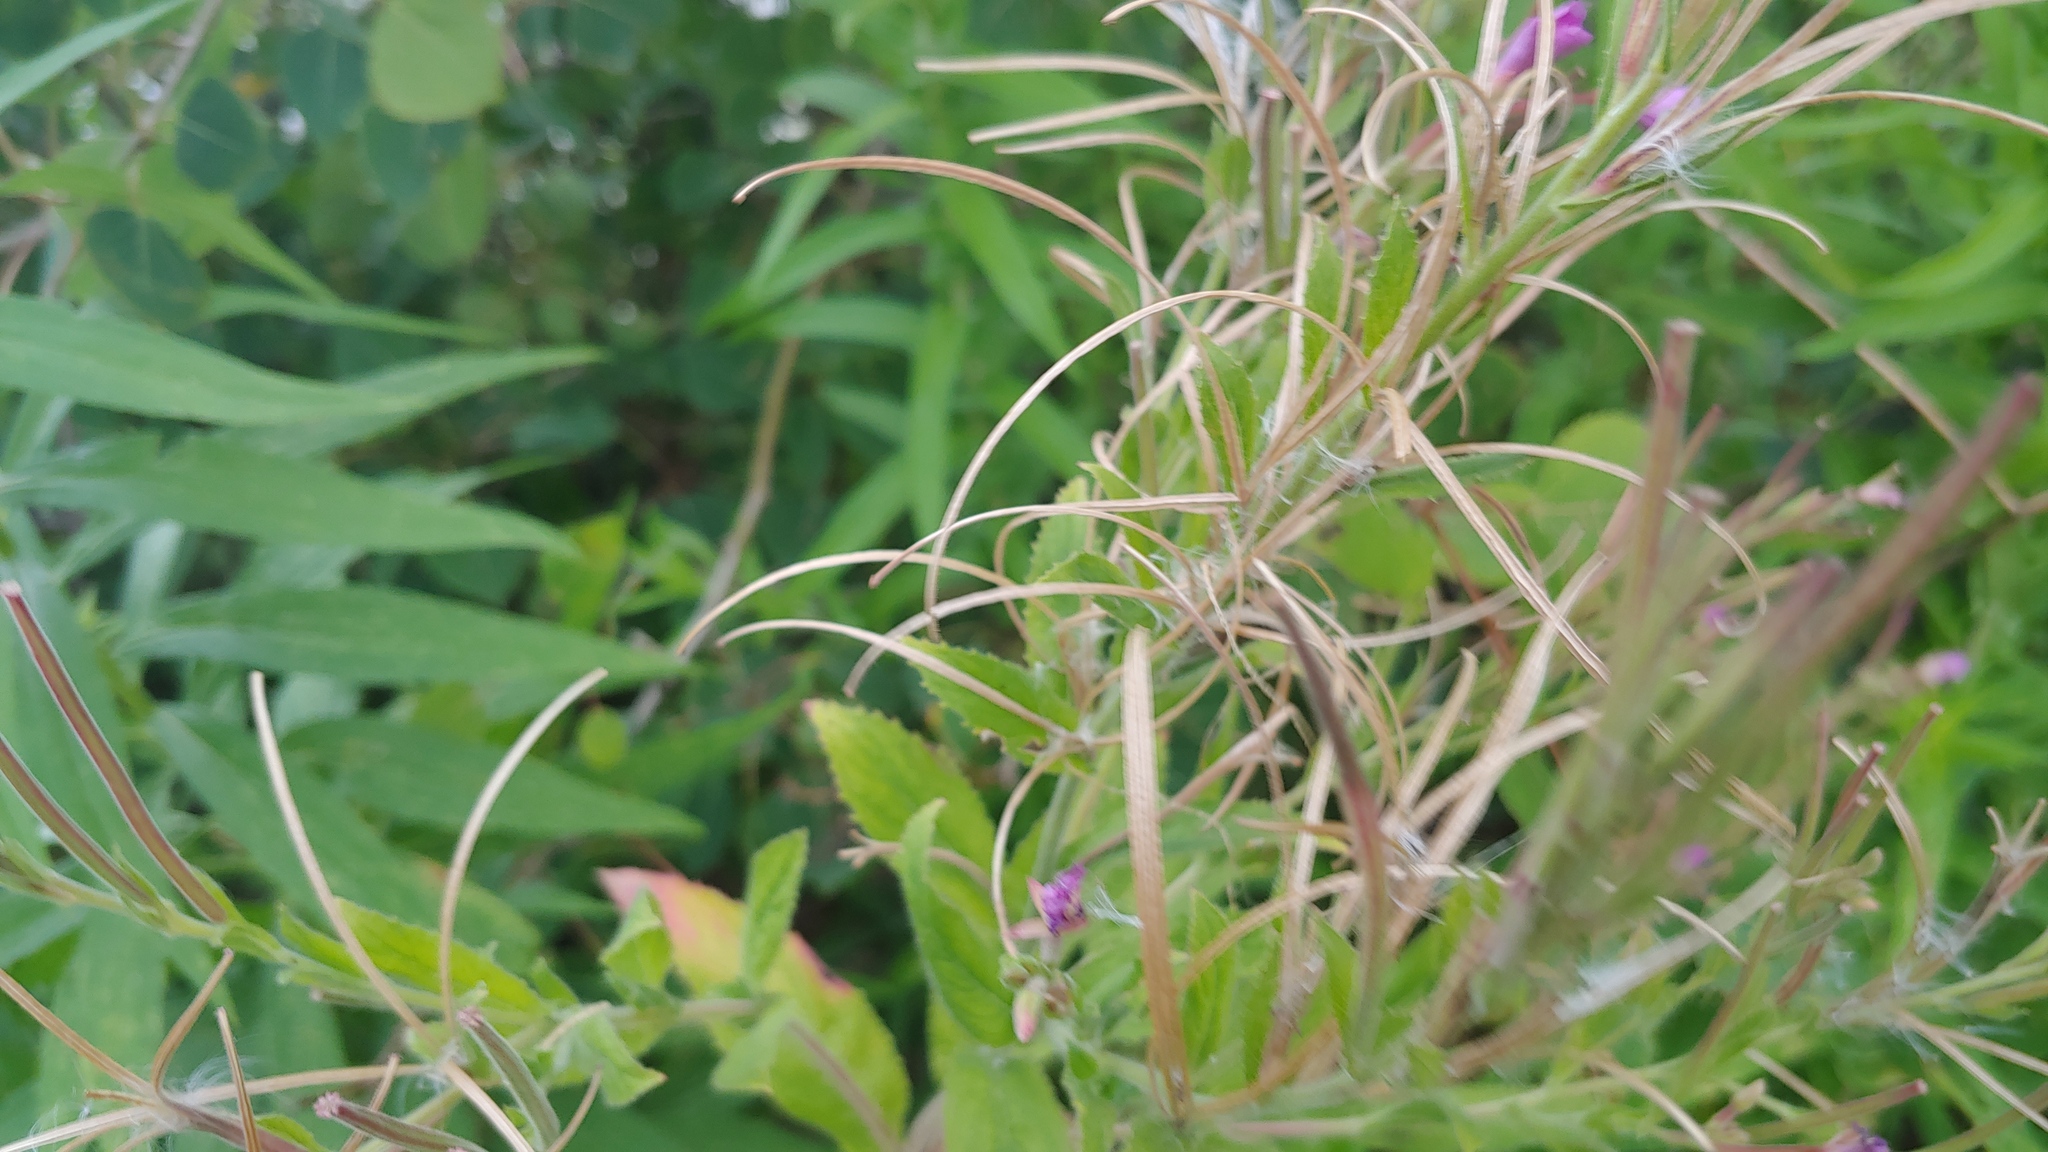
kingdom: Plantae
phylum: Tracheophyta
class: Magnoliopsida
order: Myrtales
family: Onagraceae
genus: Epilobium
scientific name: Epilobium hirsutum
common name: Great willowherb
